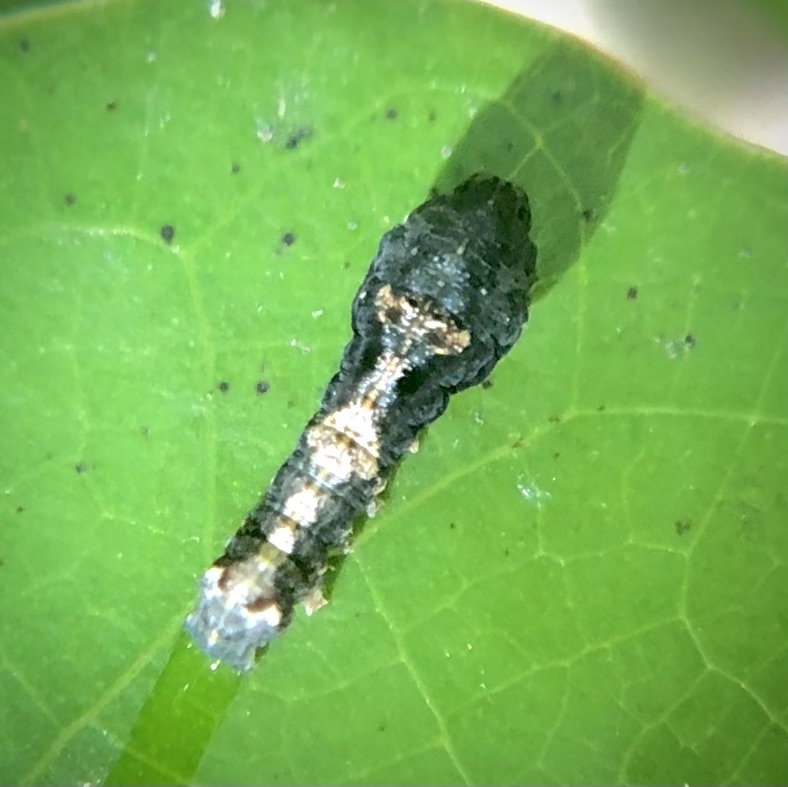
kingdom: Animalia
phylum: Arthropoda
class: Insecta
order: Lepidoptera
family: Noctuidae
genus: Elaphria
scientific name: Elaphria versicolor
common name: Fir harlequin
